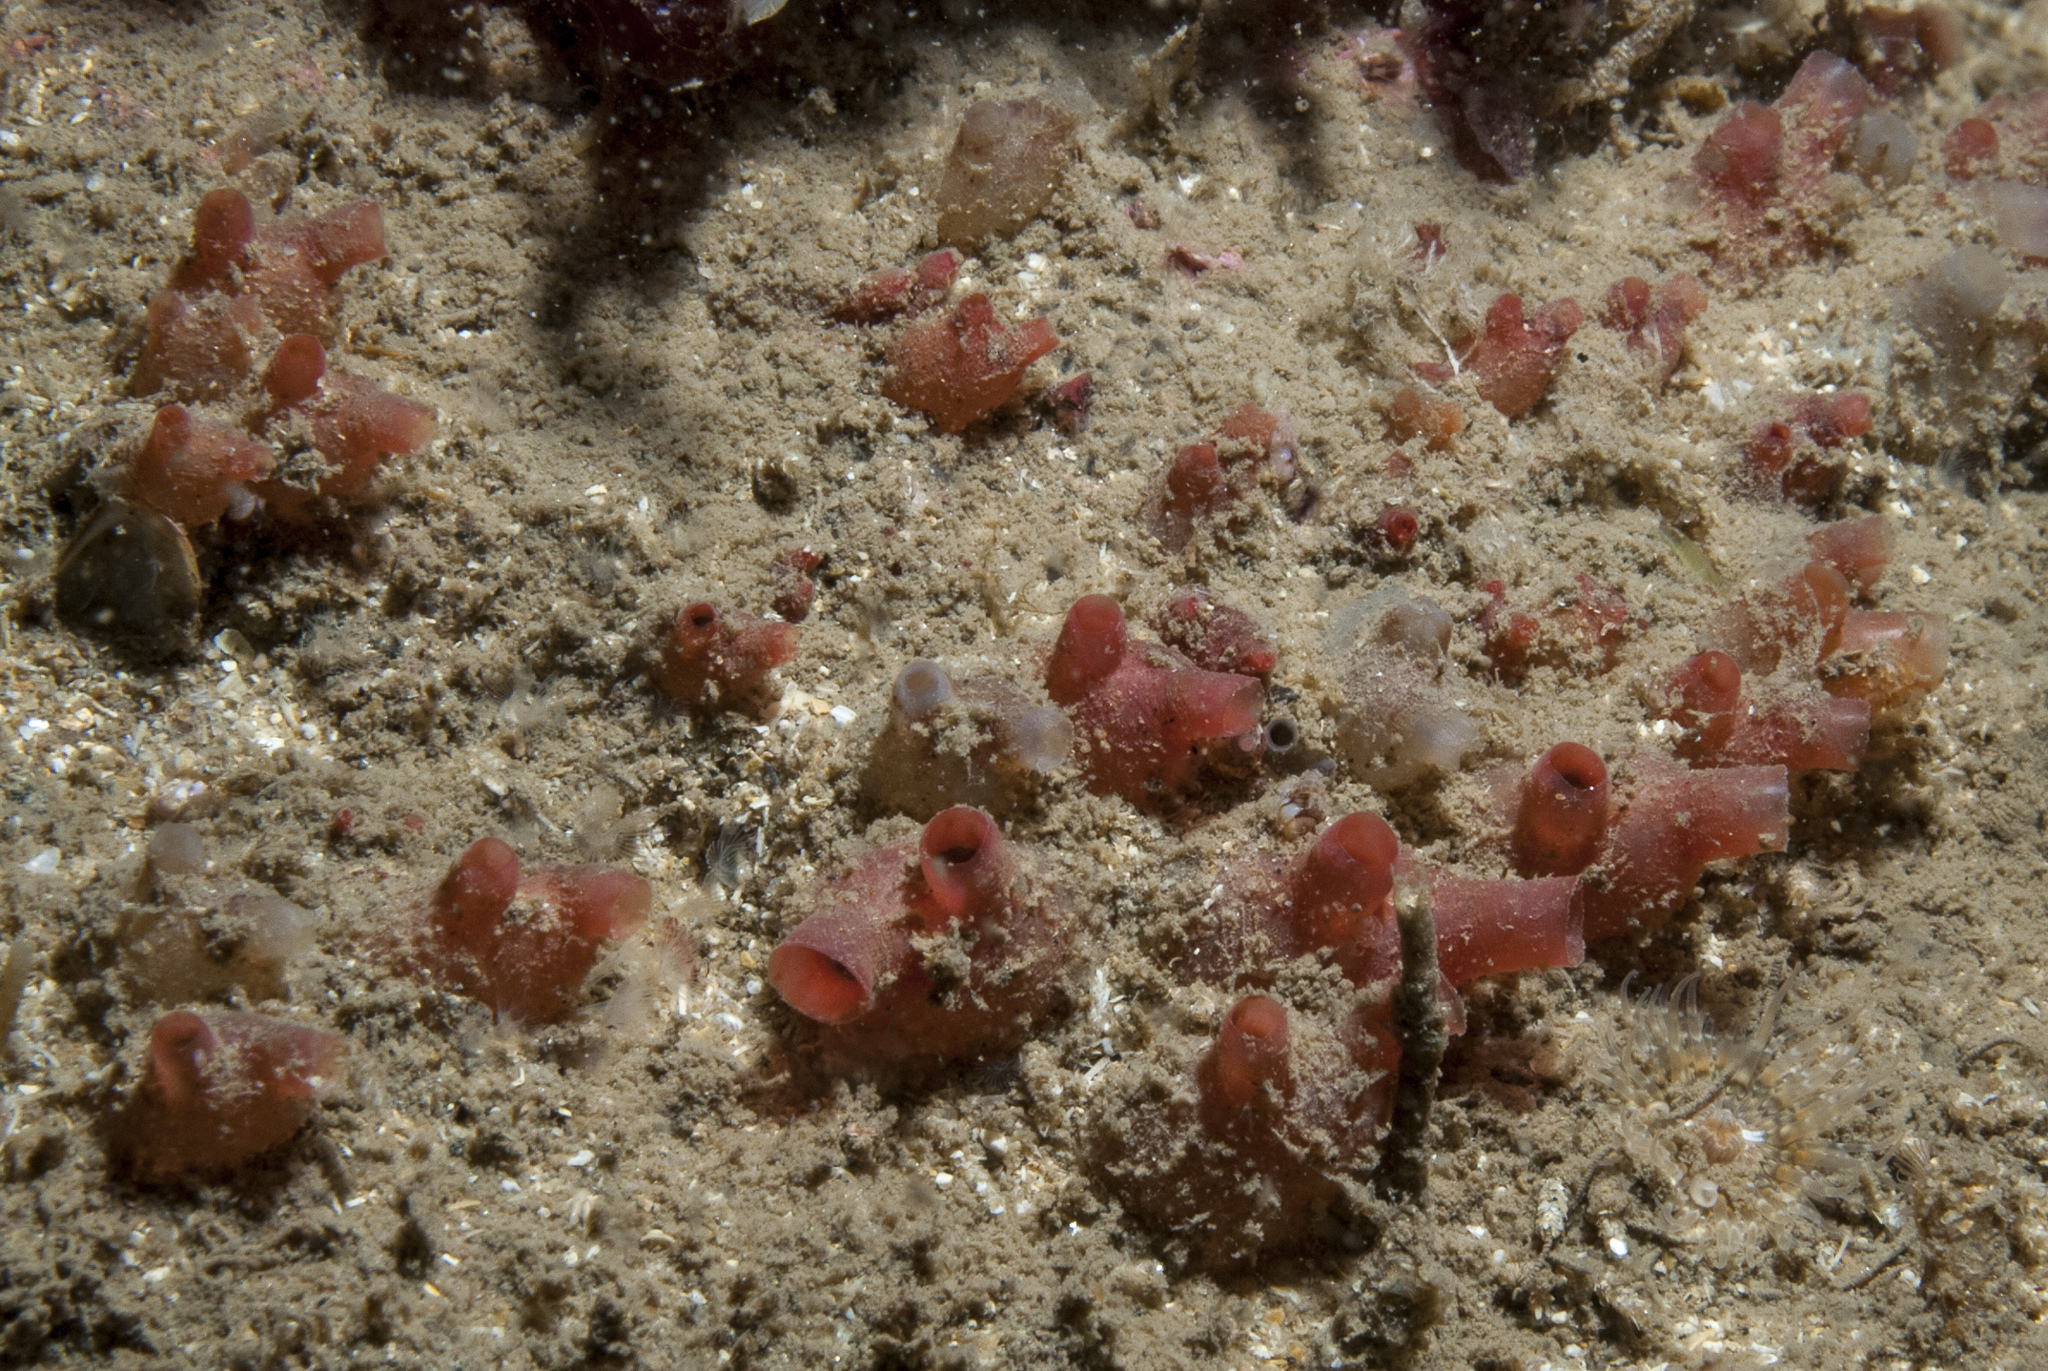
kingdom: Animalia
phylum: Chordata
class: Ascidiacea
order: Stolidobranchia
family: Styelidae
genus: Polycarpa
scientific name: Polycarpa errans
